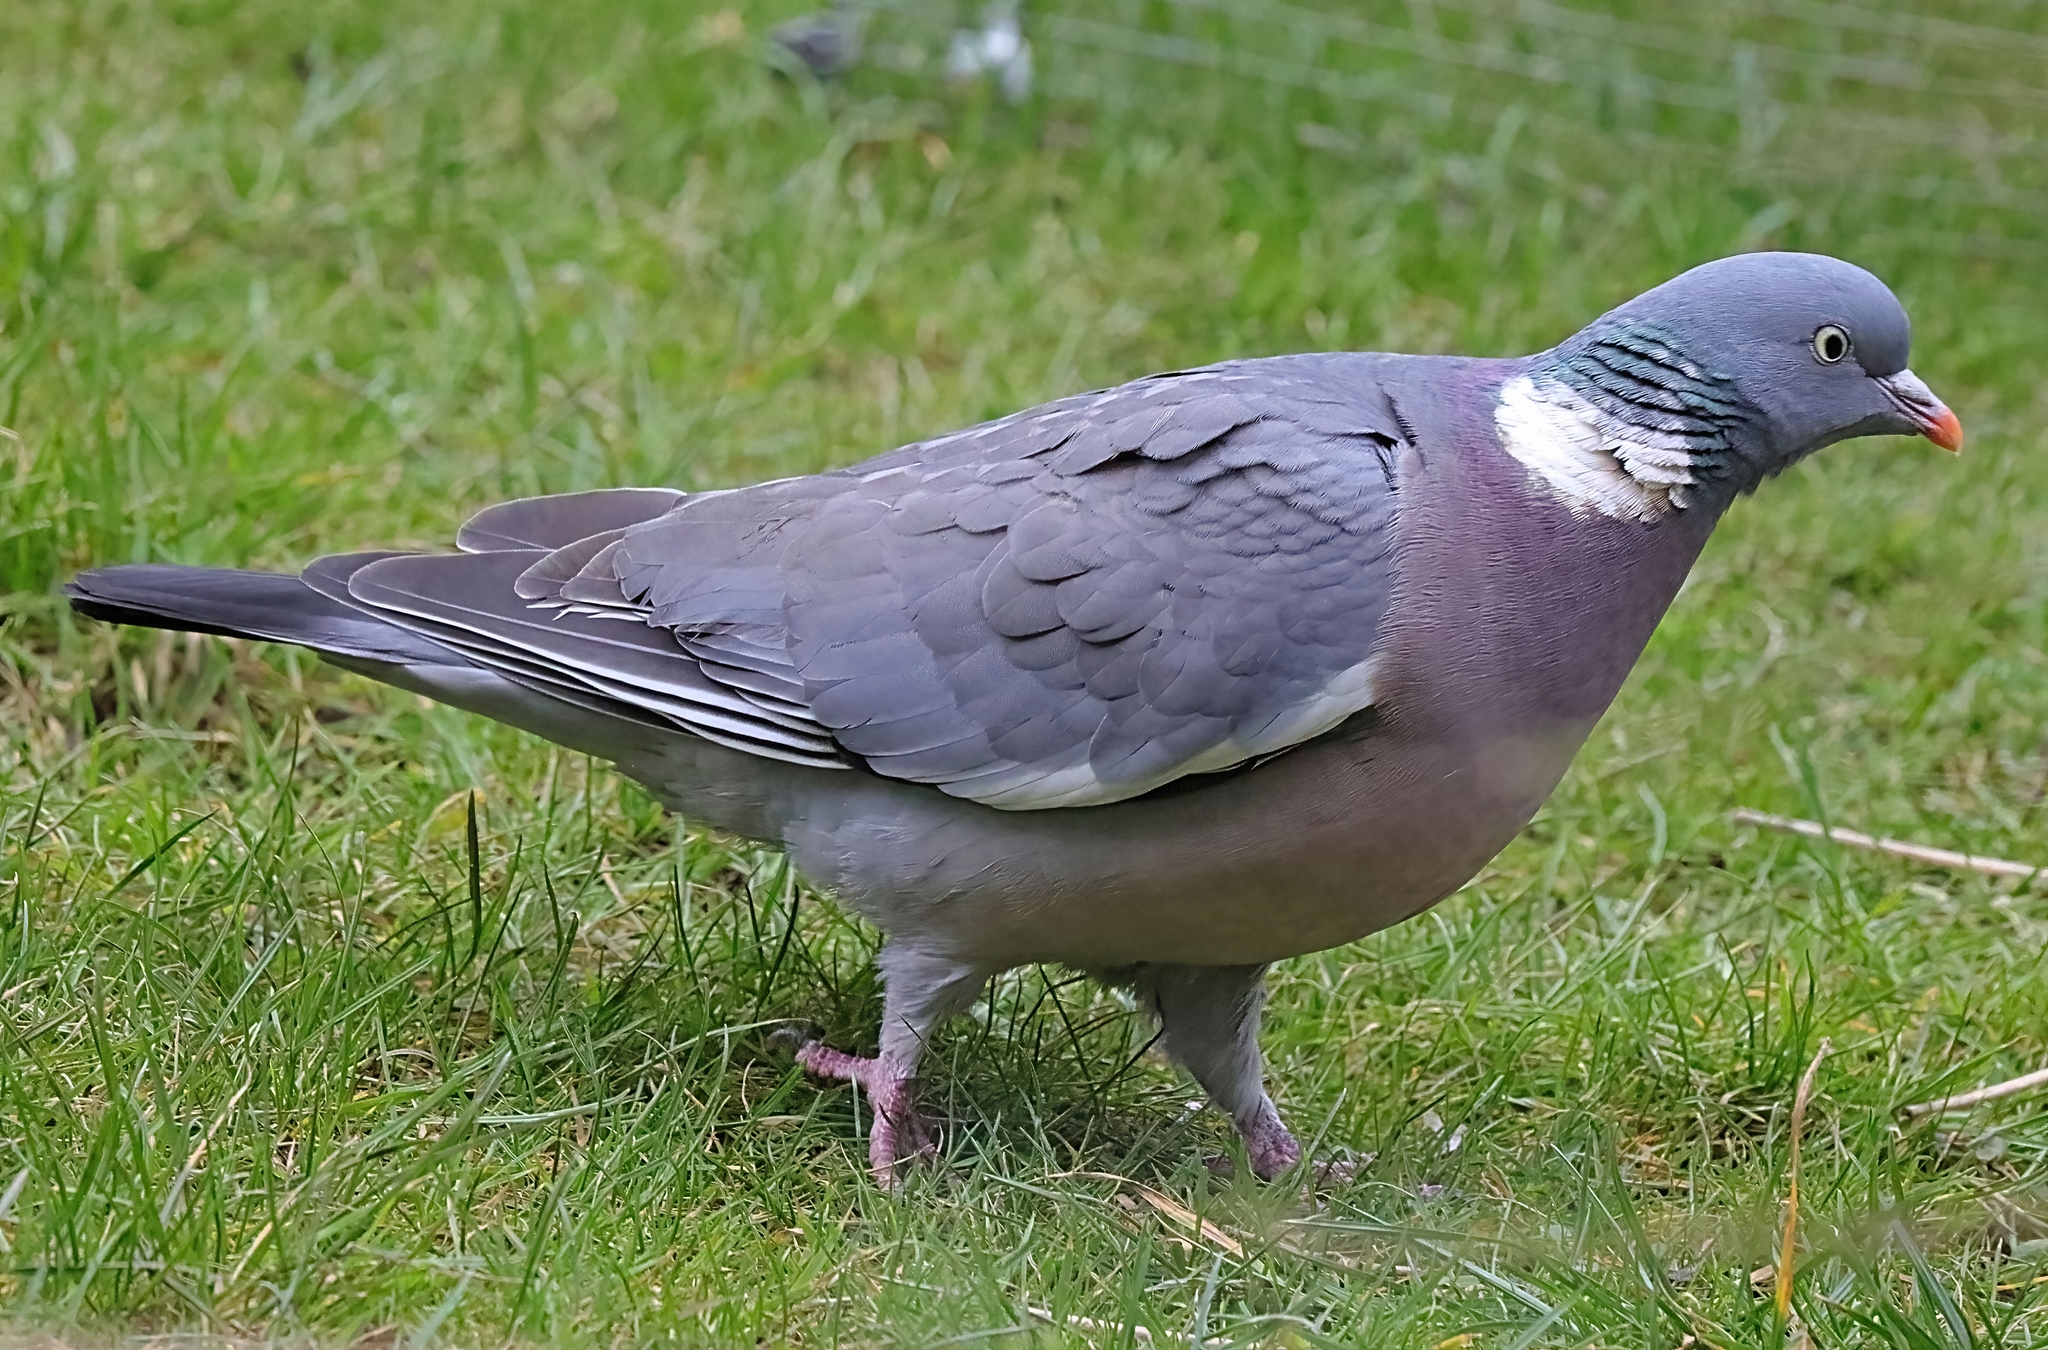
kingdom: Animalia
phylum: Chordata
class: Aves
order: Columbiformes
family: Columbidae
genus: Columba
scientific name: Columba palumbus
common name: Common wood pigeon
